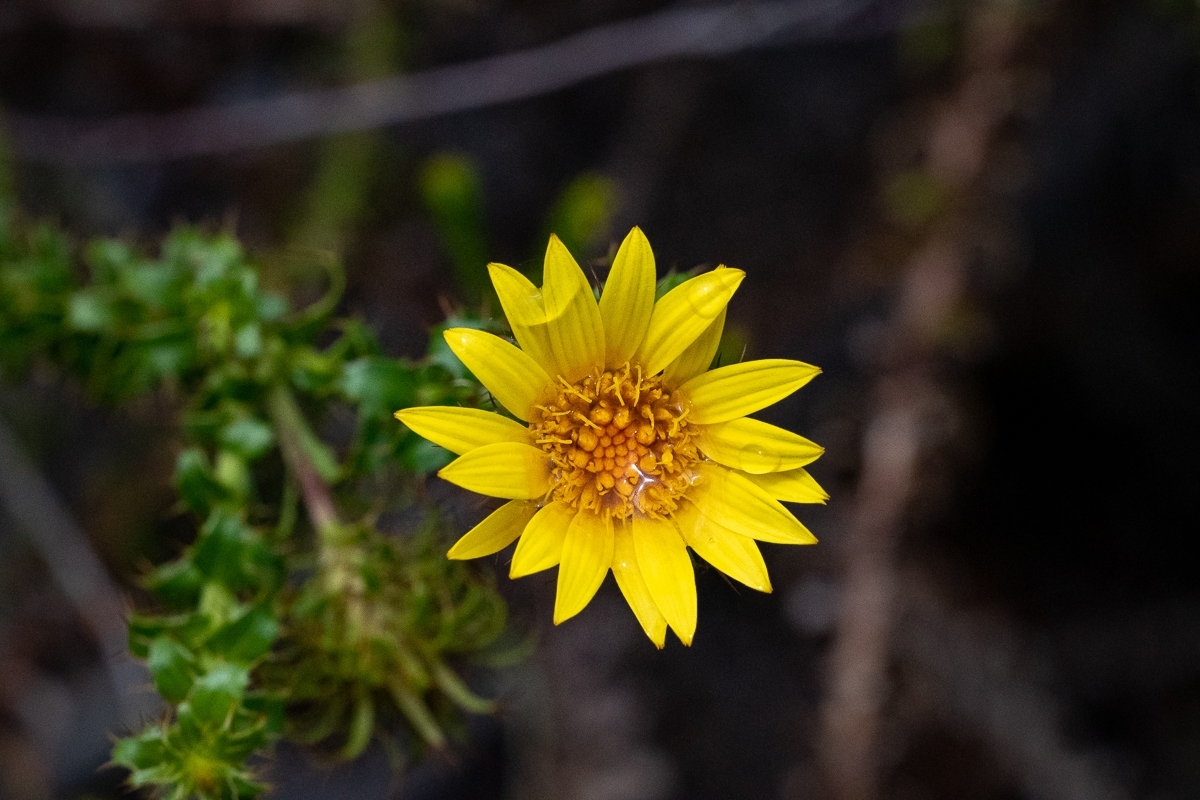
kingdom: Plantae
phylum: Tracheophyta
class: Magnoliopsida
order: Asterales
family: Asteraceae
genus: Cullumia
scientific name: Cullumia setosa
